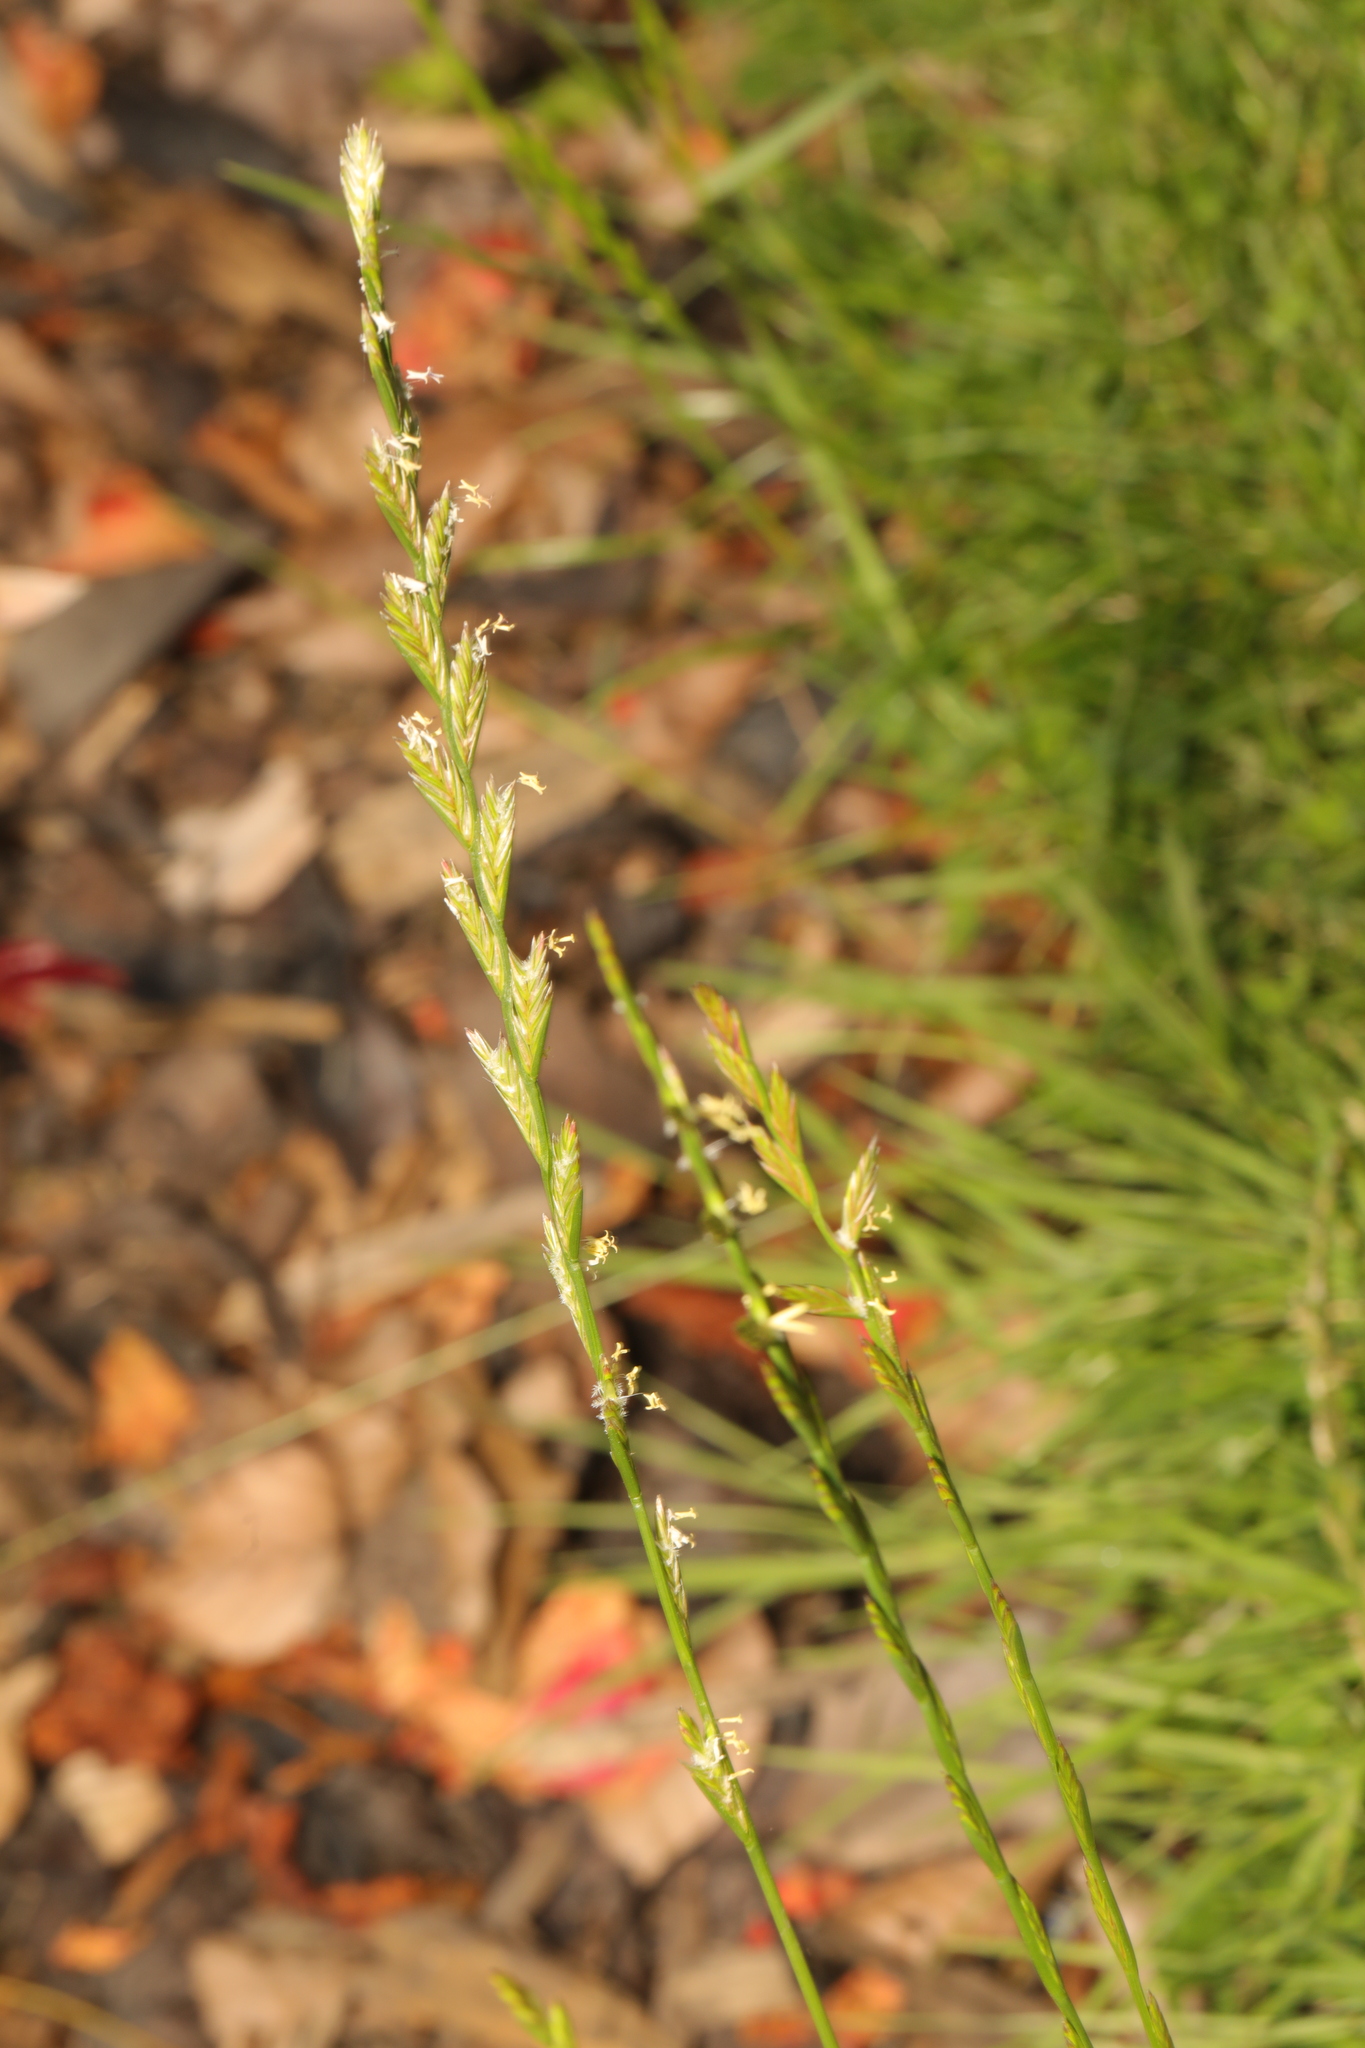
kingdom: Plantae
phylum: Tracheophyta
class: Liliopsida
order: Poales
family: Poaceae
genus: Lolium
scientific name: Lolium perenne
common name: Perennial ryegrass
